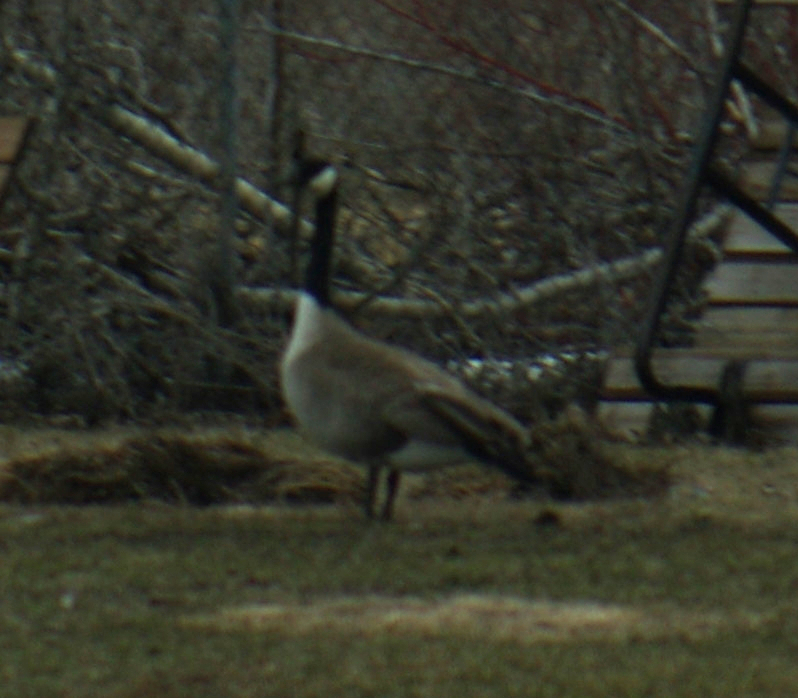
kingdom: Animalia
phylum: Chordata
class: Aves
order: Anseriformes
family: Anatidae
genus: Branta
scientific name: Branta canadensis
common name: Canada goose
